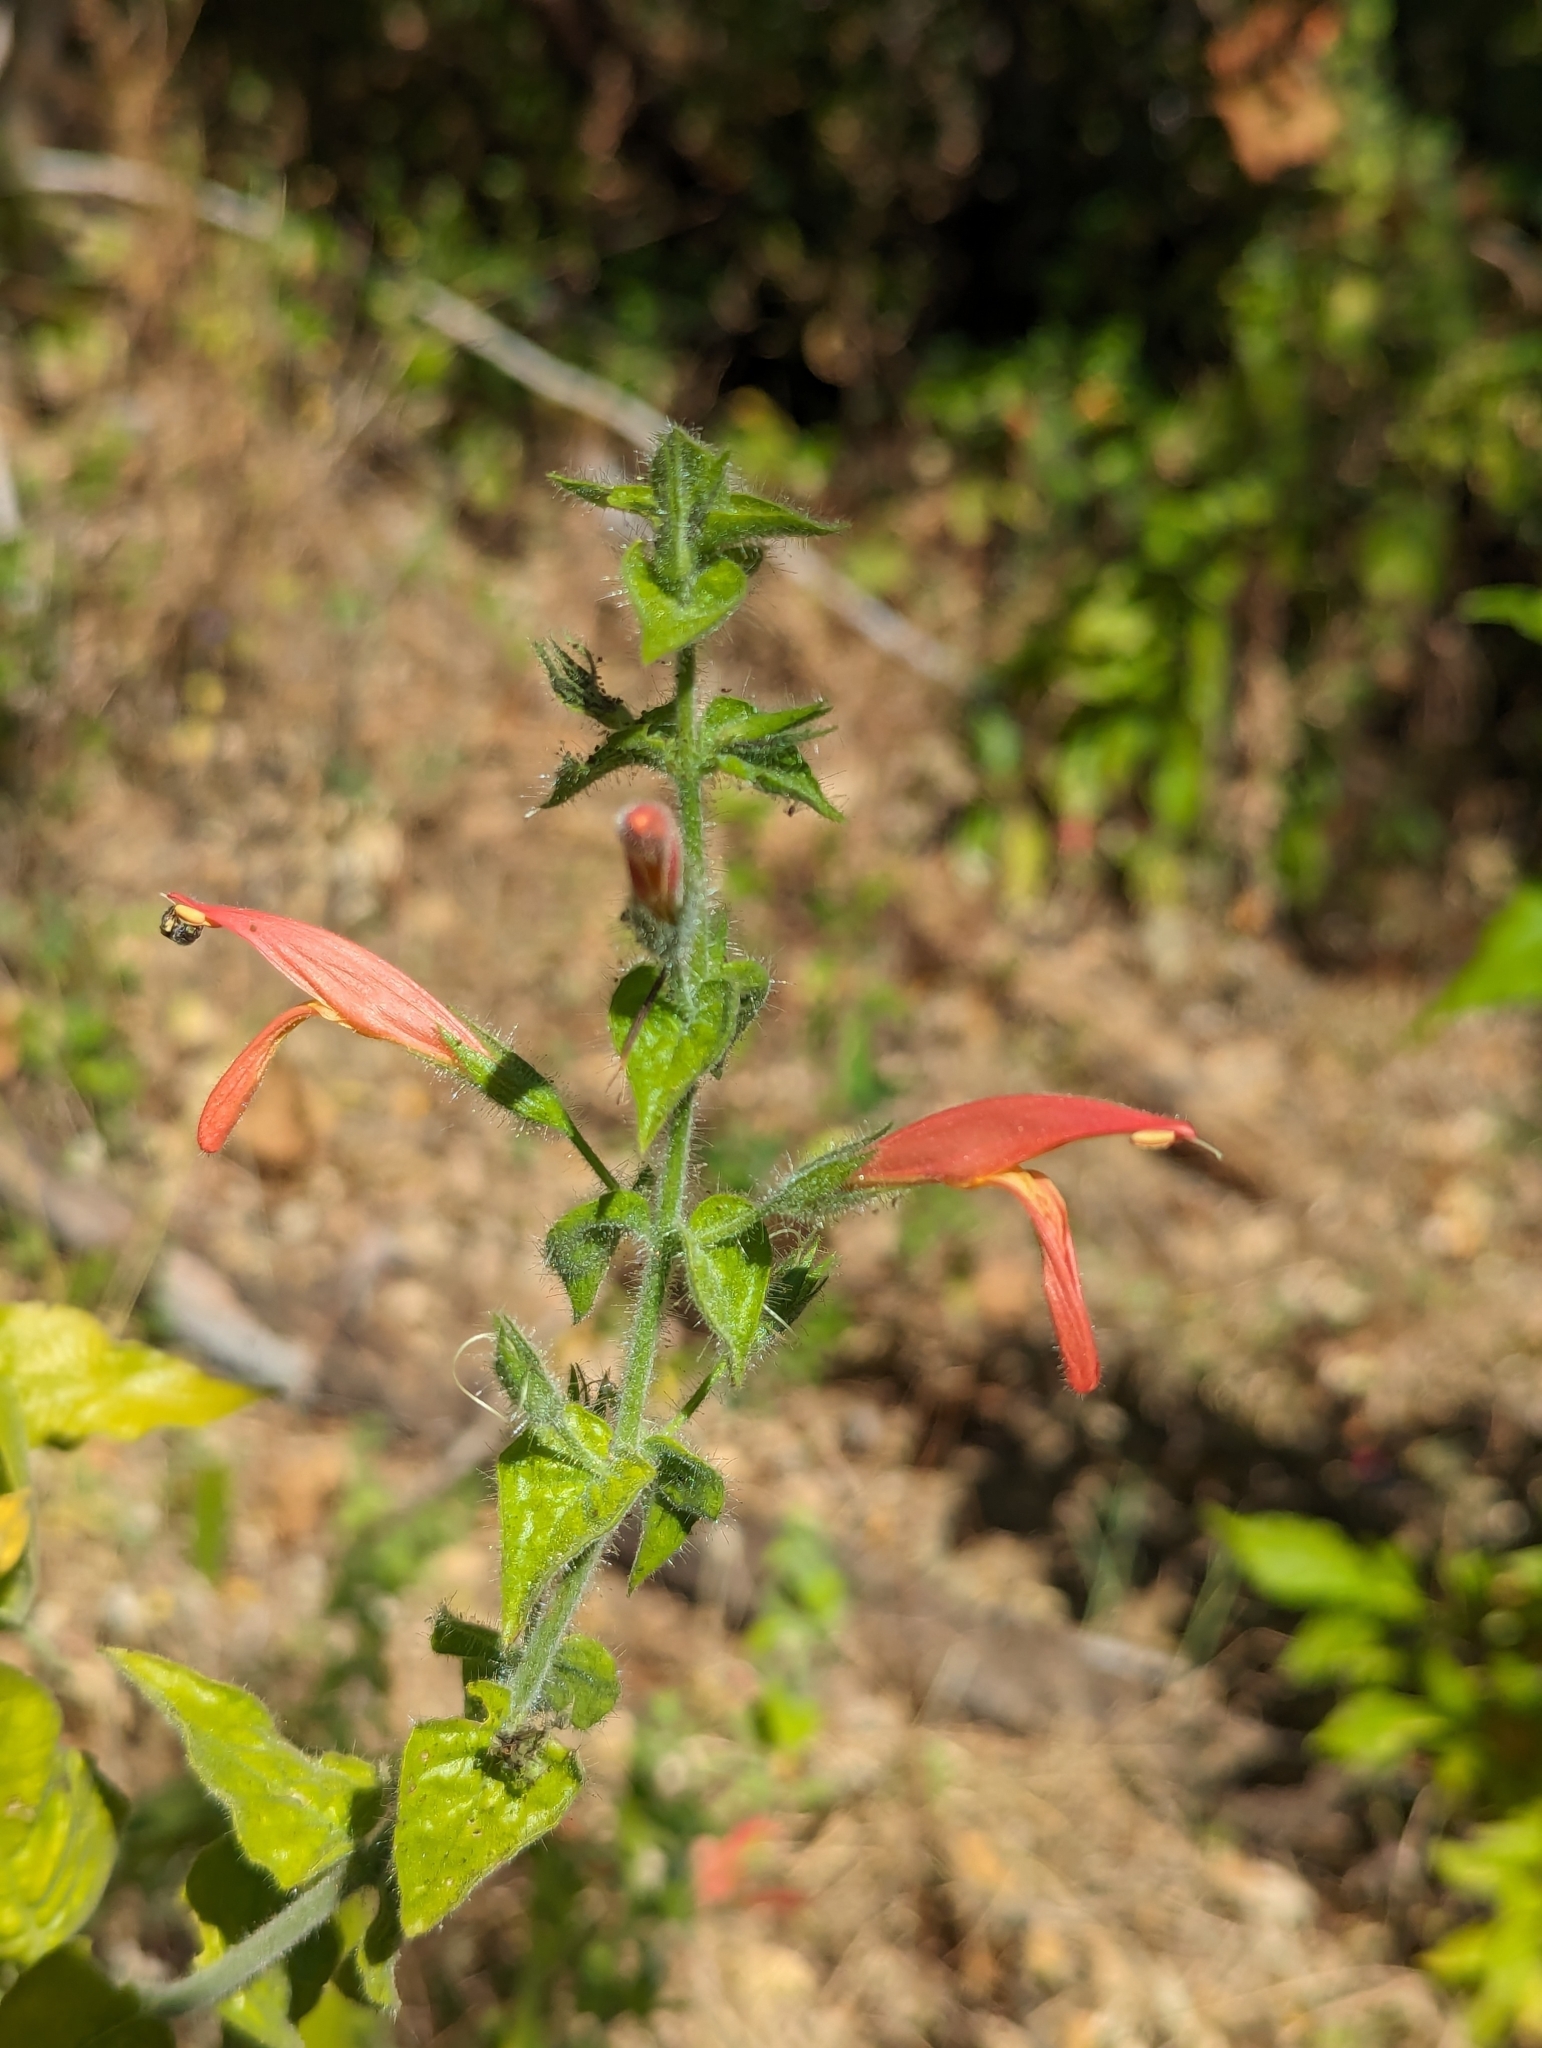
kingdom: Plantae
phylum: Tracheophyta
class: Magnoliopsida
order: Lamiales
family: Acanthaceae
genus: Justicia
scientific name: Justicia purpusii
